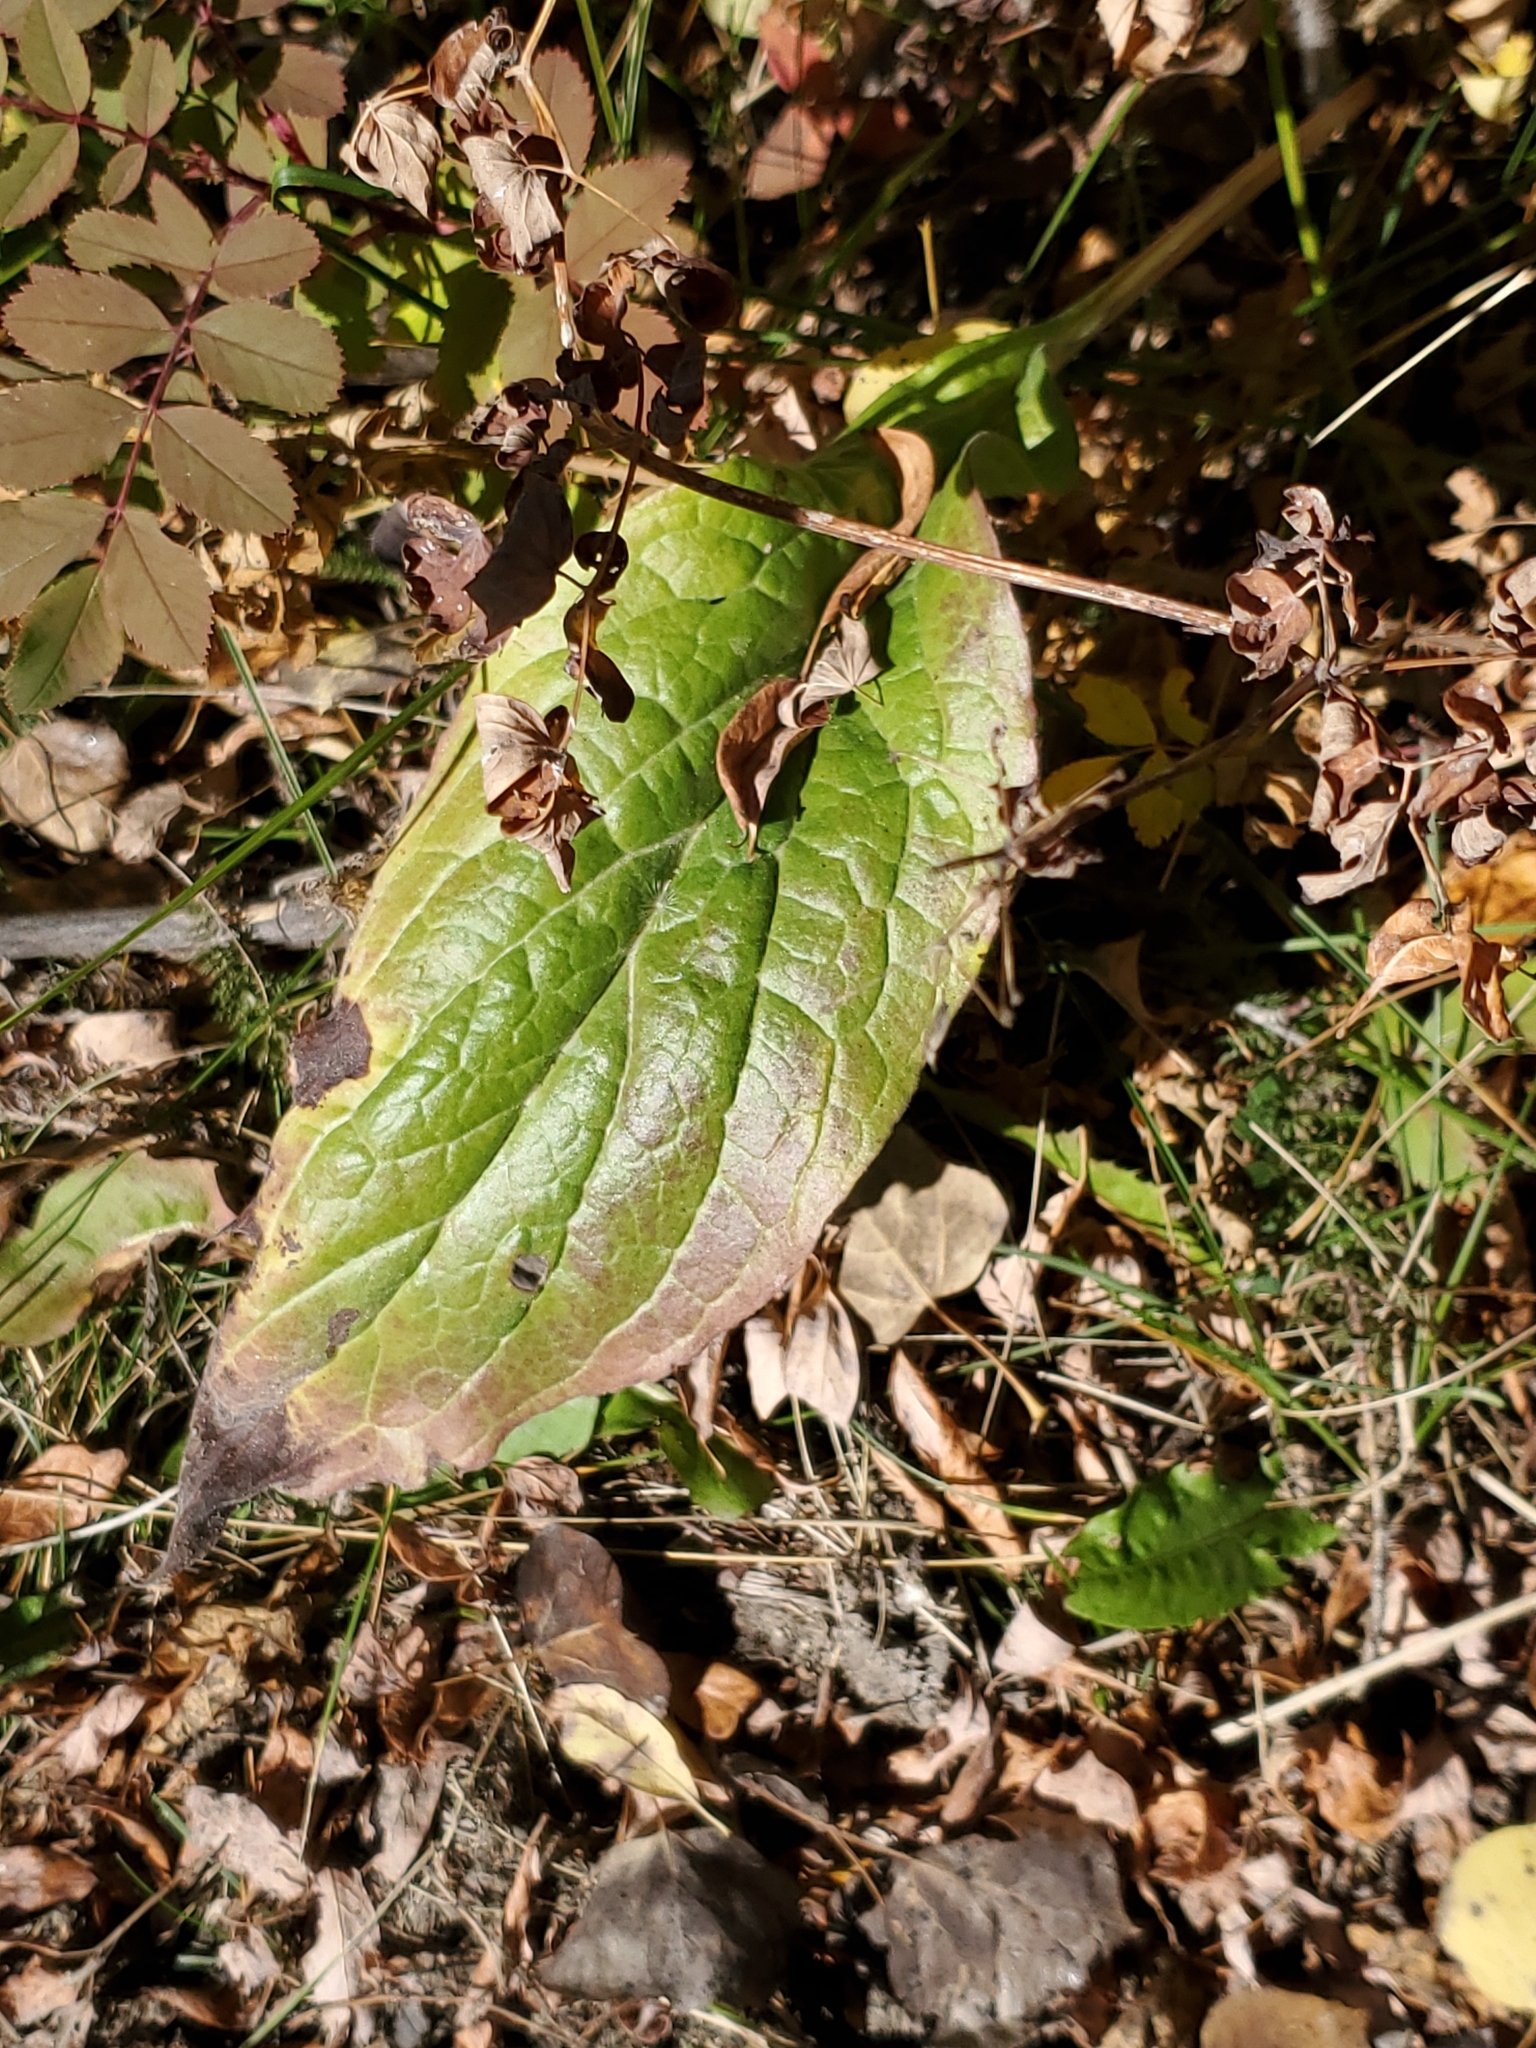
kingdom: Plantae
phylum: Tracheophyta
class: Magnoliopsida
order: Boraginales
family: Boraginaceae
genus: Cynoglossum
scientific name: Cynoglossum officinale
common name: Hound's-tongue
